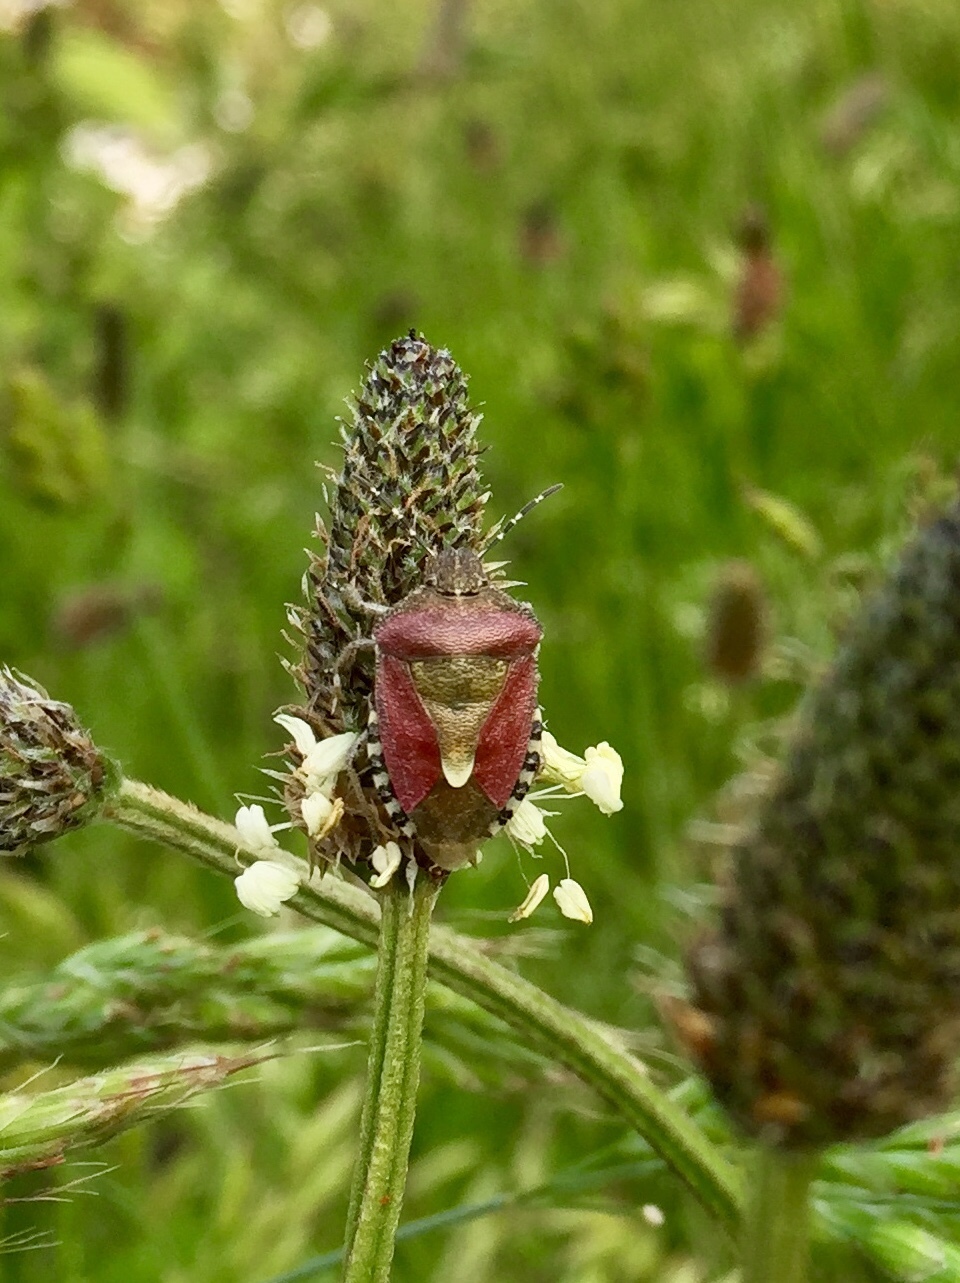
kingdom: Animalia
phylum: Arthropoda
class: Insecta
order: Hemiptera
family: Pentatomidae
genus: Dolycoris
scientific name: Dolycoris baccarum
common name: Sloe bug
